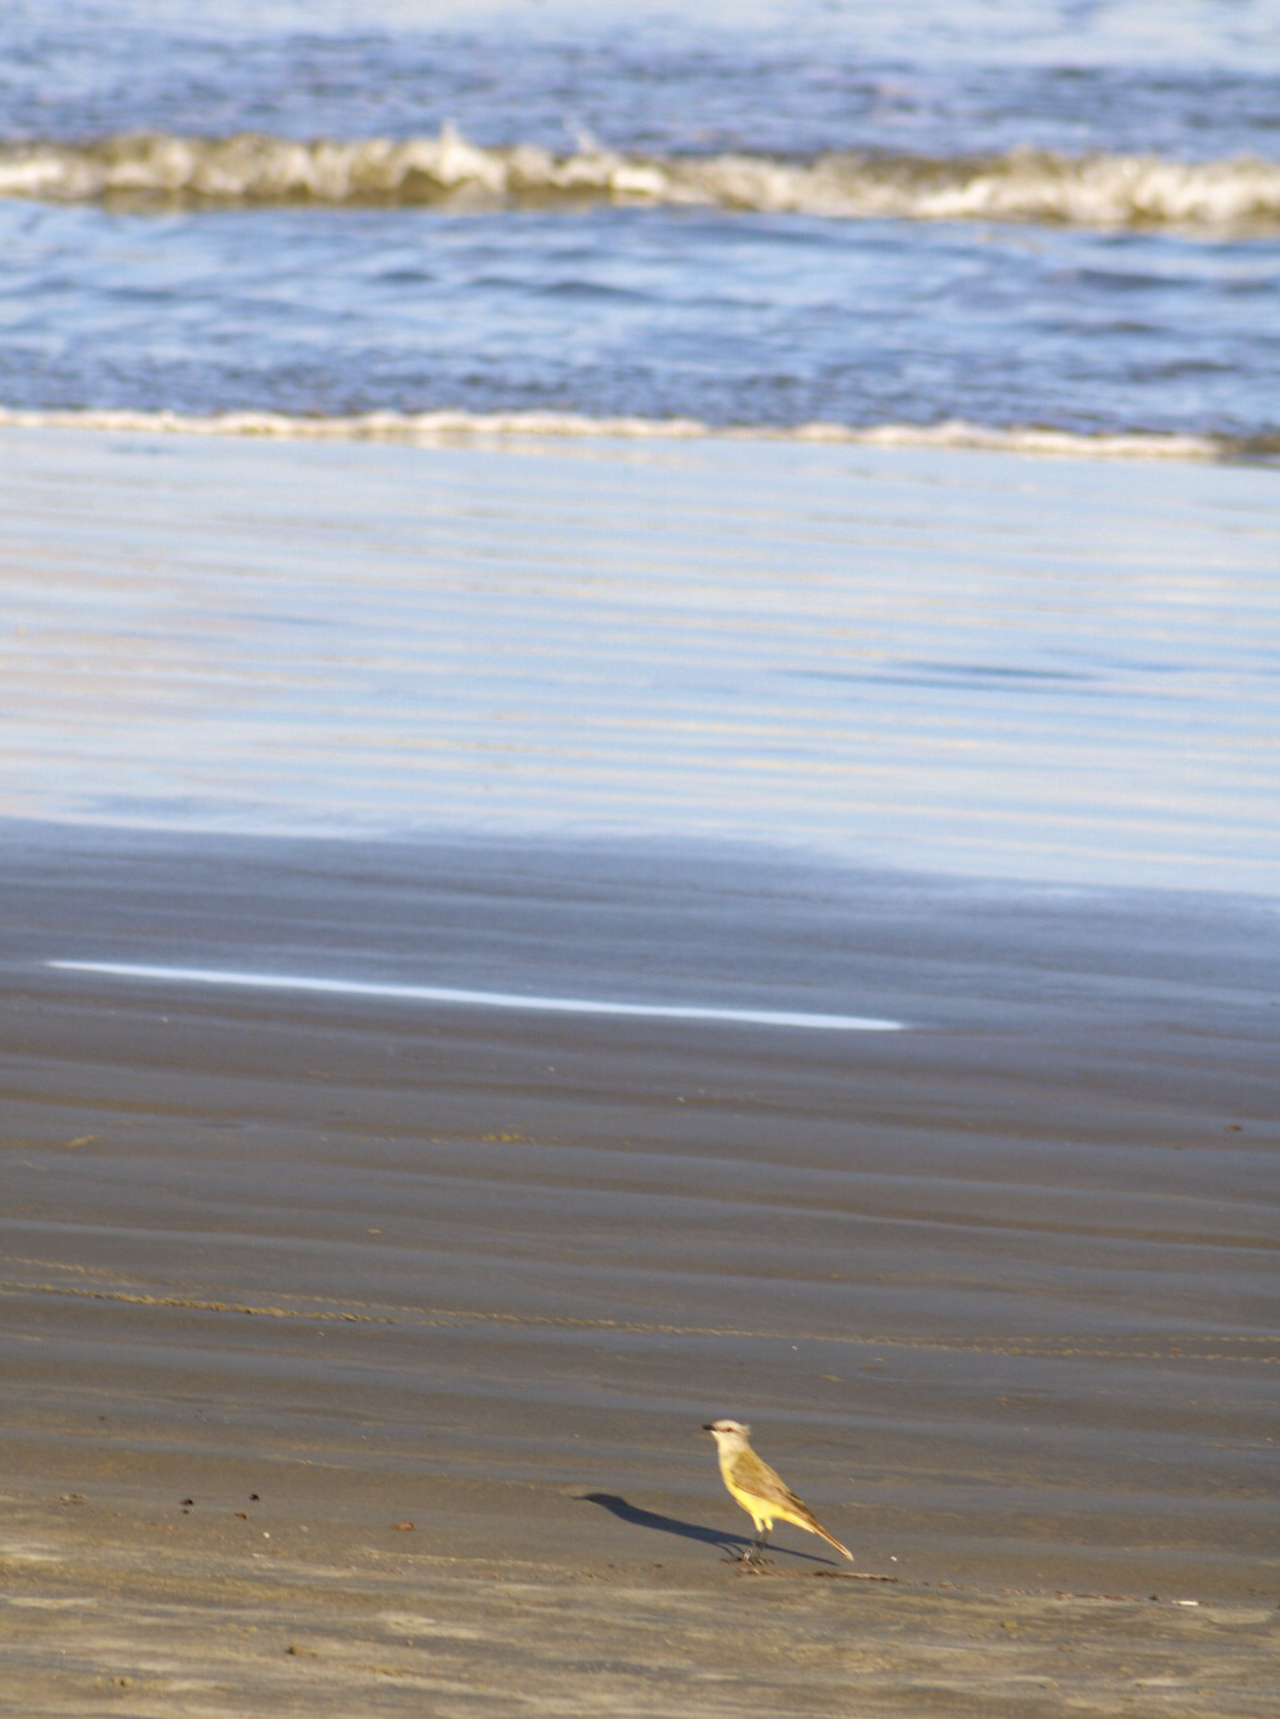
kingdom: Animalia
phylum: Chordata
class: Aves
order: Passeriformes
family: Tyrannidae
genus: Machetornis
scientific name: Machetornis rixosa
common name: Cattle tyrant
